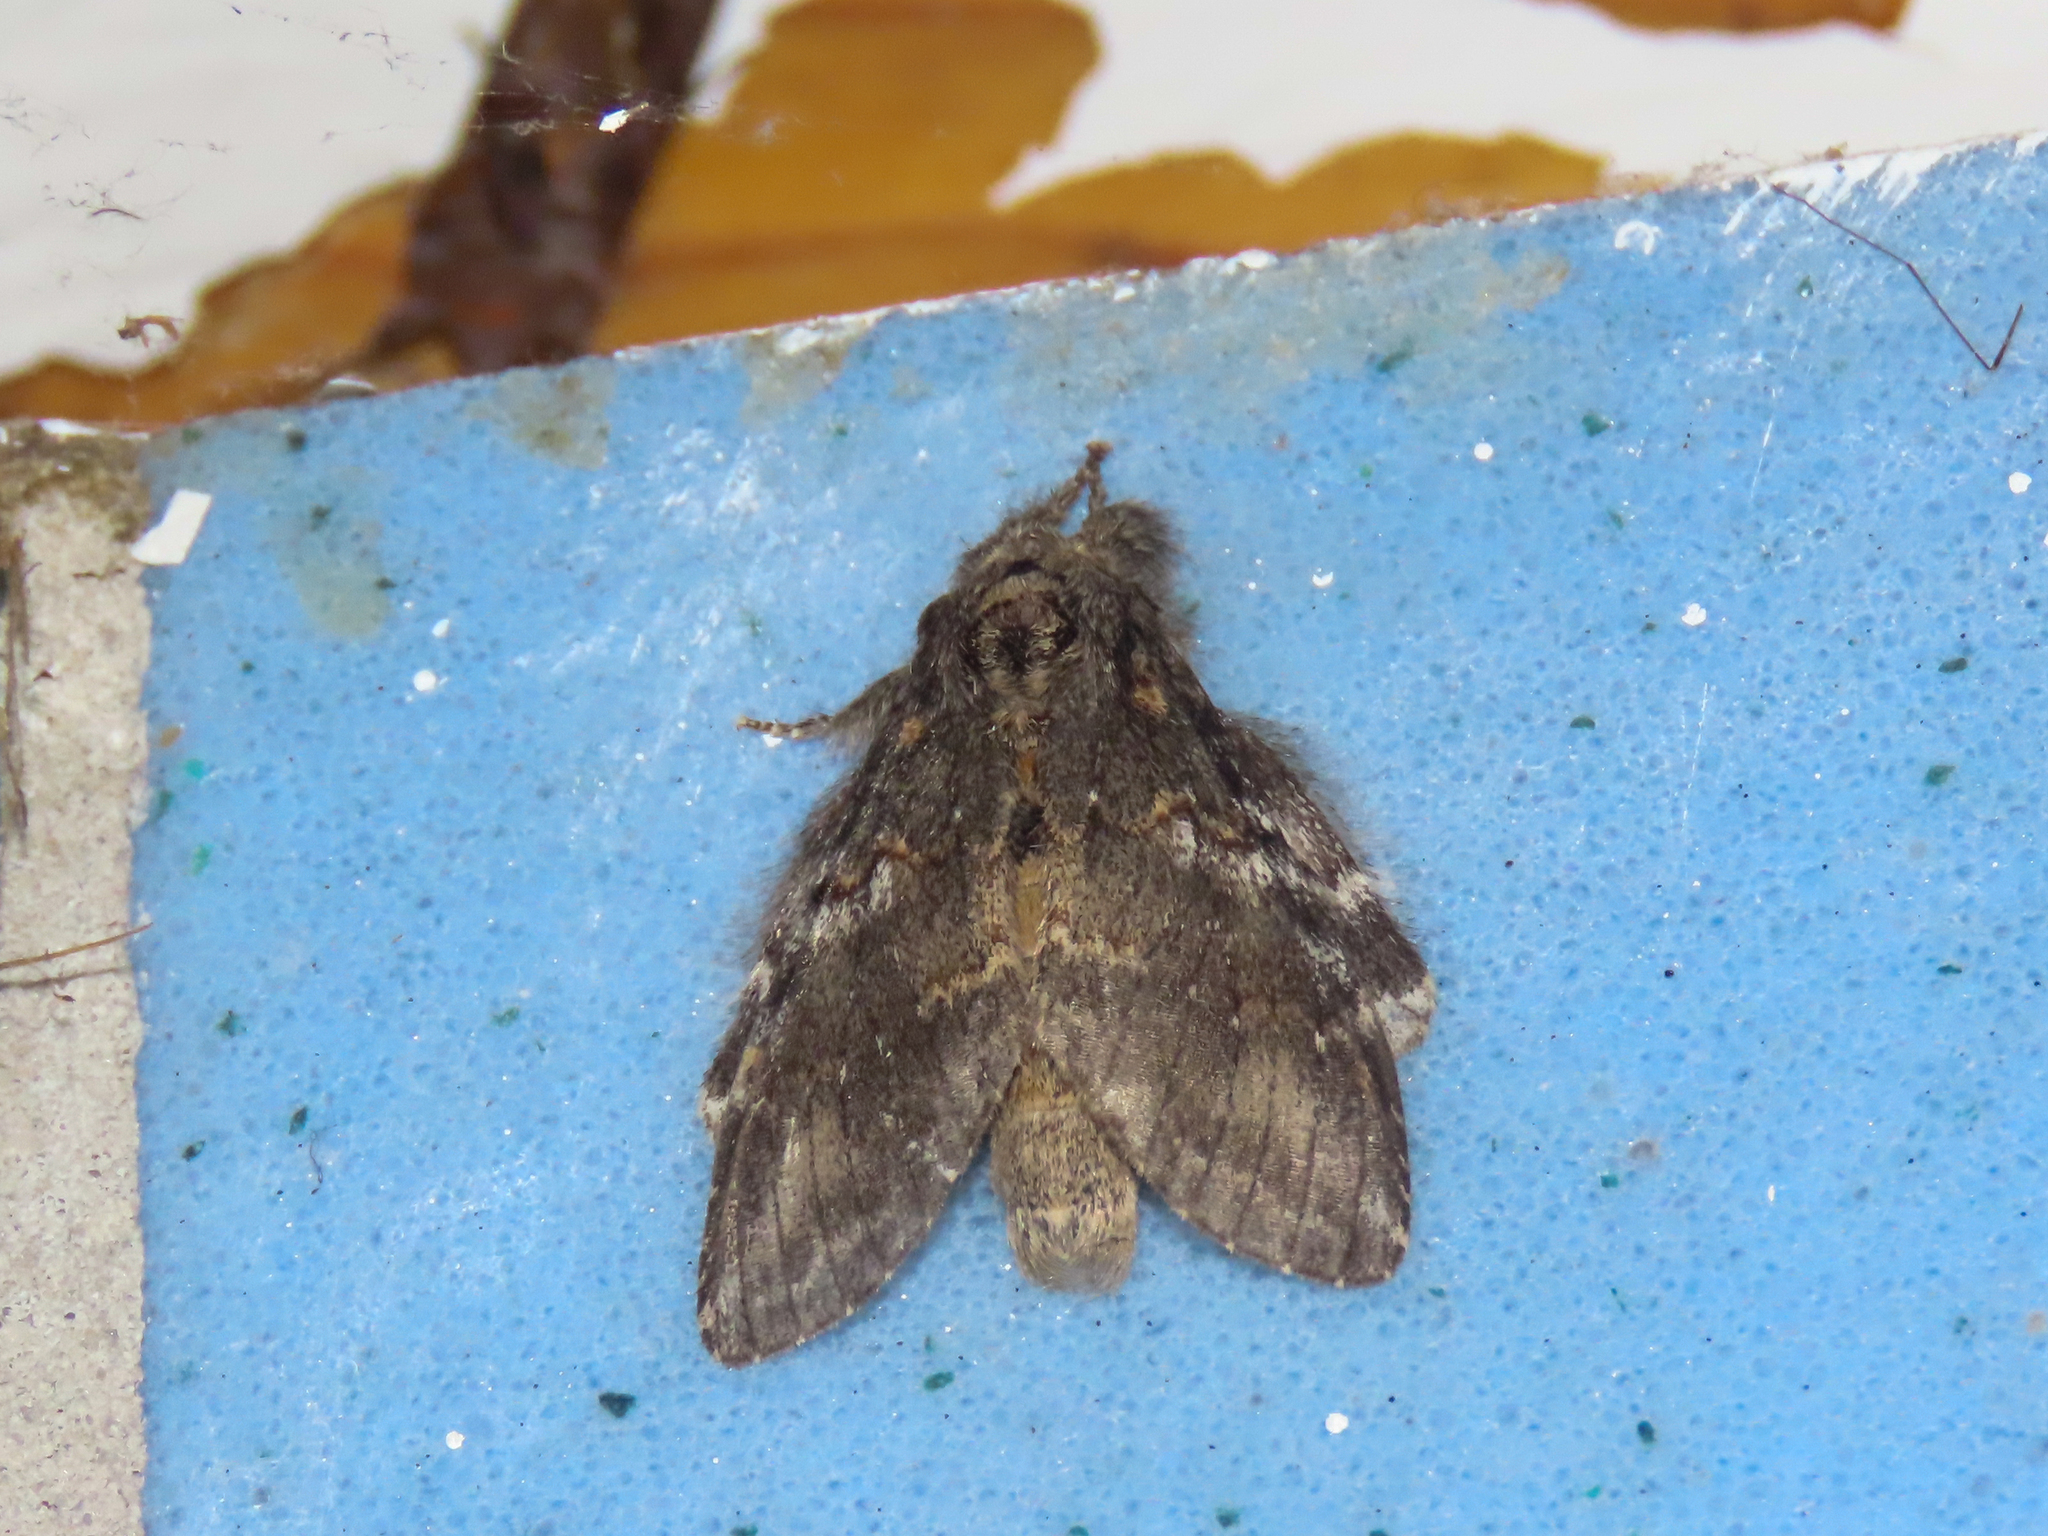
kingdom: Animalia
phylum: Arthropoda
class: Insecta
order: Lepidoptera
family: Notodontidae
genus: Peridea
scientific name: Peridea angulosa
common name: Angulose prominent
